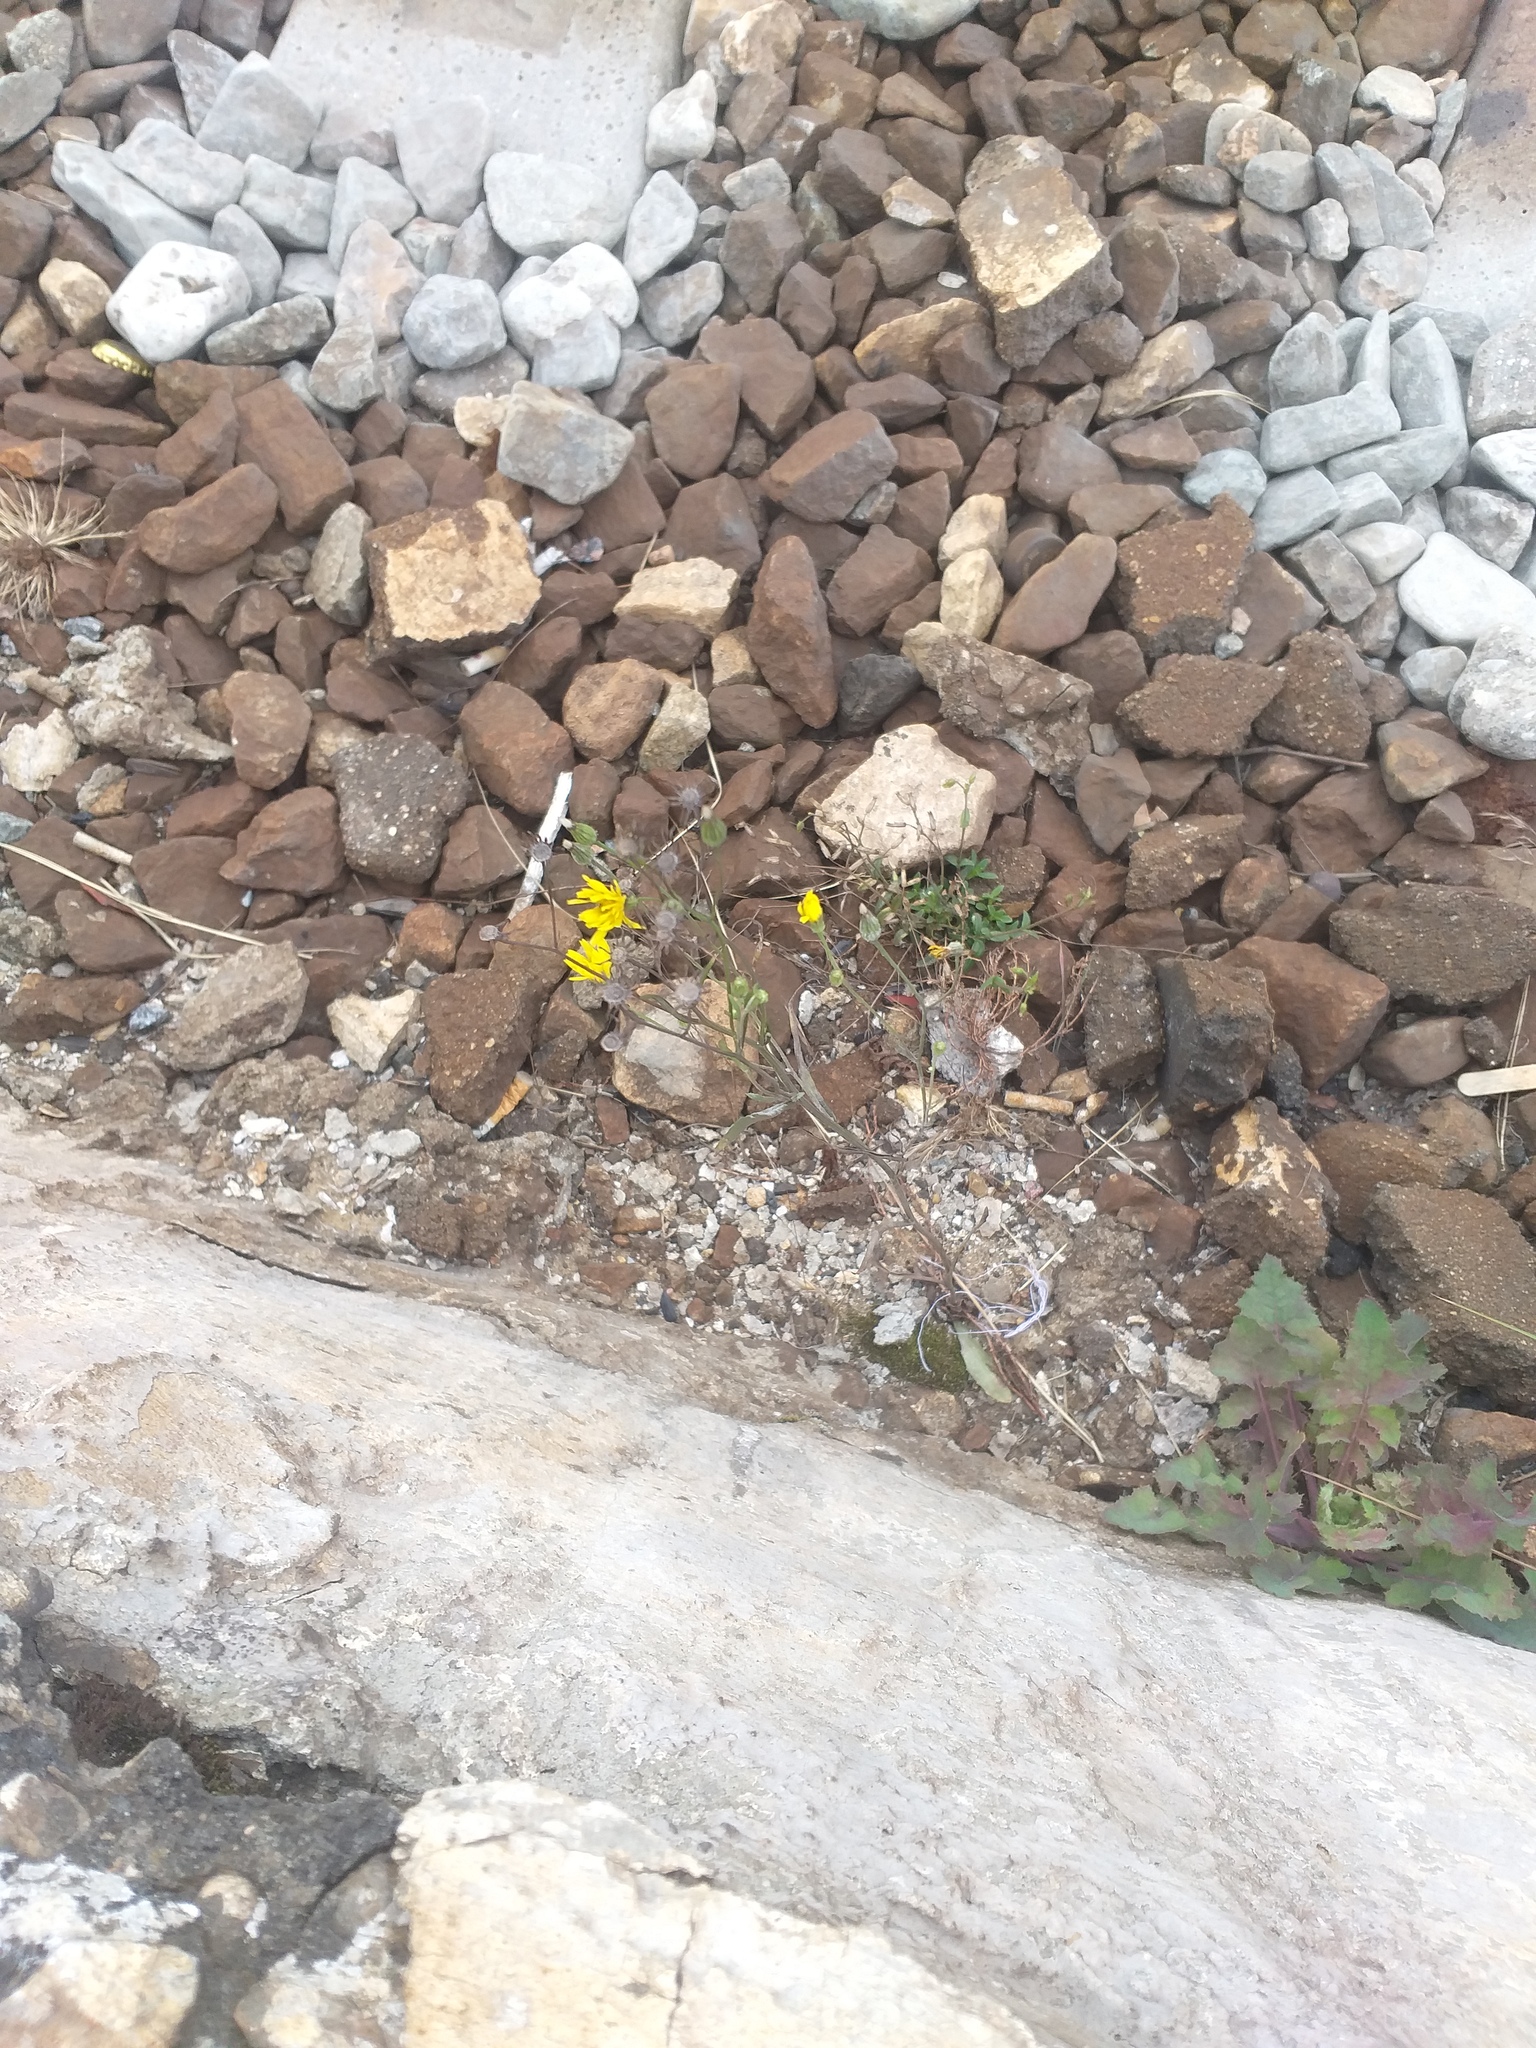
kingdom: Plantae
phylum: Tracheophyta
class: Magnoliopsida
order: Asterales
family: Asteraceae
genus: Crepis
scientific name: Crepis tectorum
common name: Narrow-leaved hawk's-beard
